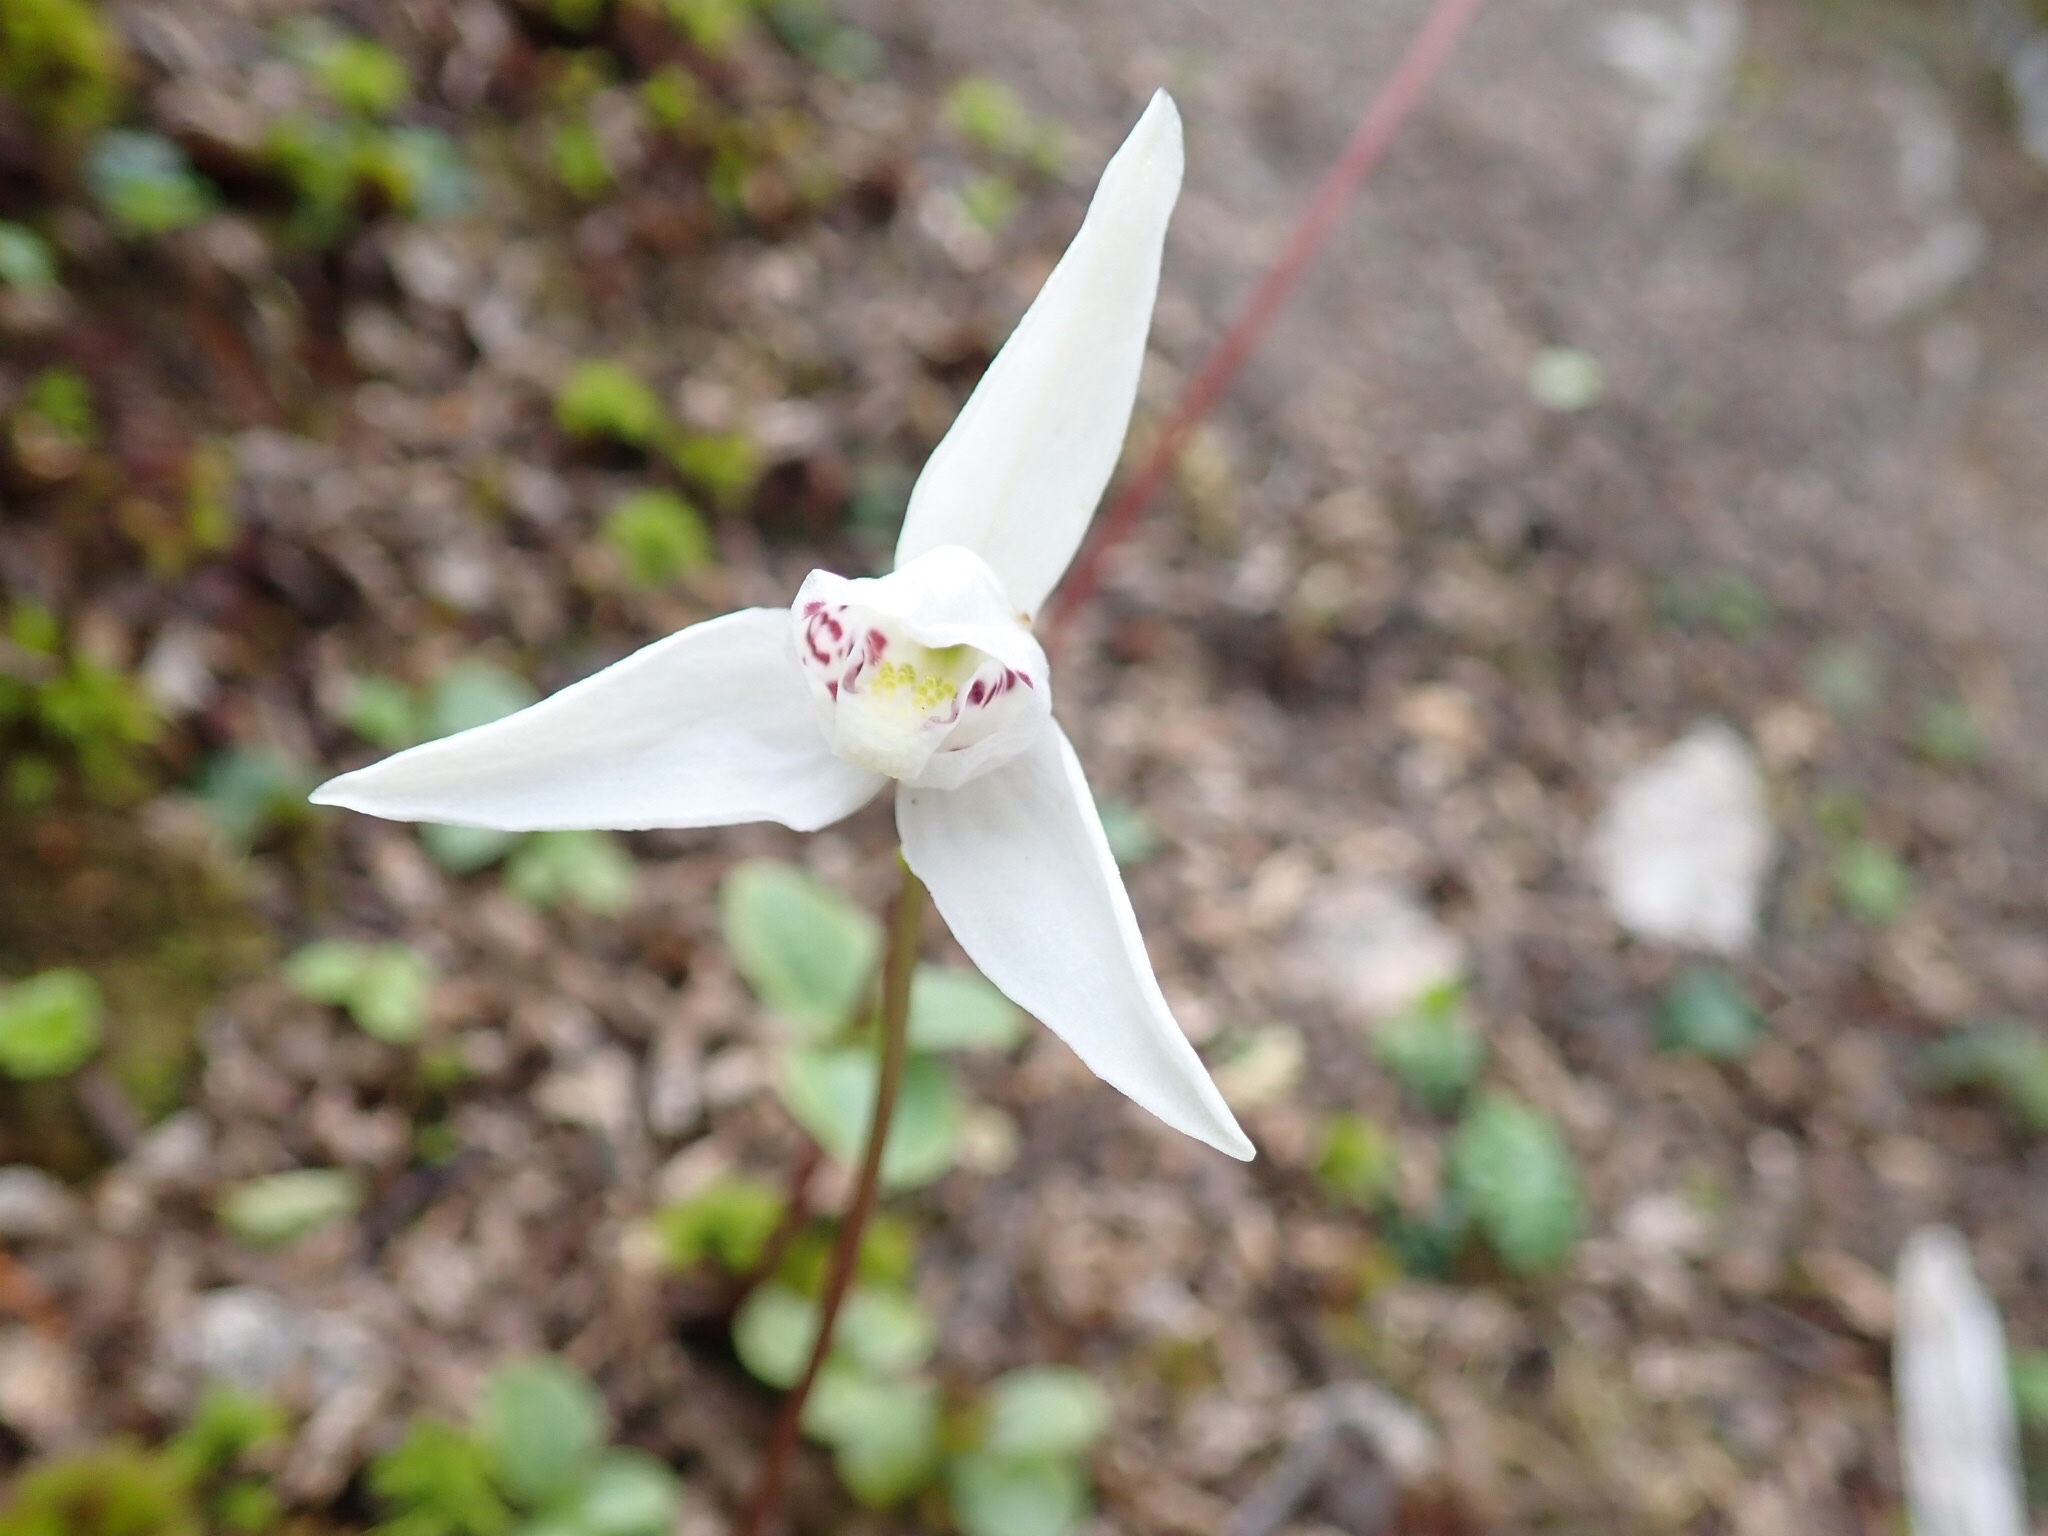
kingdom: Plantae
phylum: Tracheophyta
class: Liliopsida
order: Asparagales
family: Orchidaceae
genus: Codonorchis
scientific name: Codonorchis lessonii
